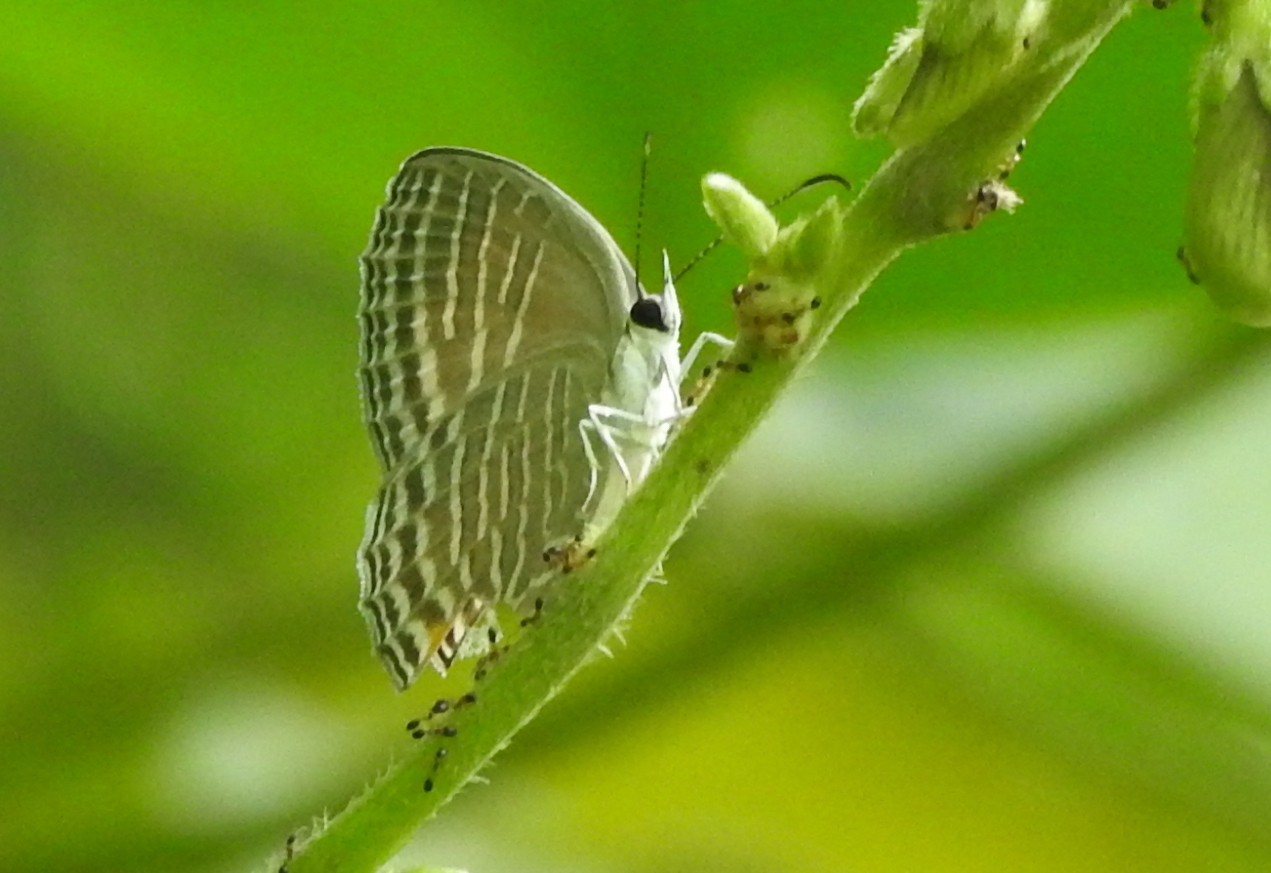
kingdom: Animalia
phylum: Arthropoda
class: Insecta
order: Lepidoptera
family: Lycaenidae
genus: Jamides
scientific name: Jamides celeno
